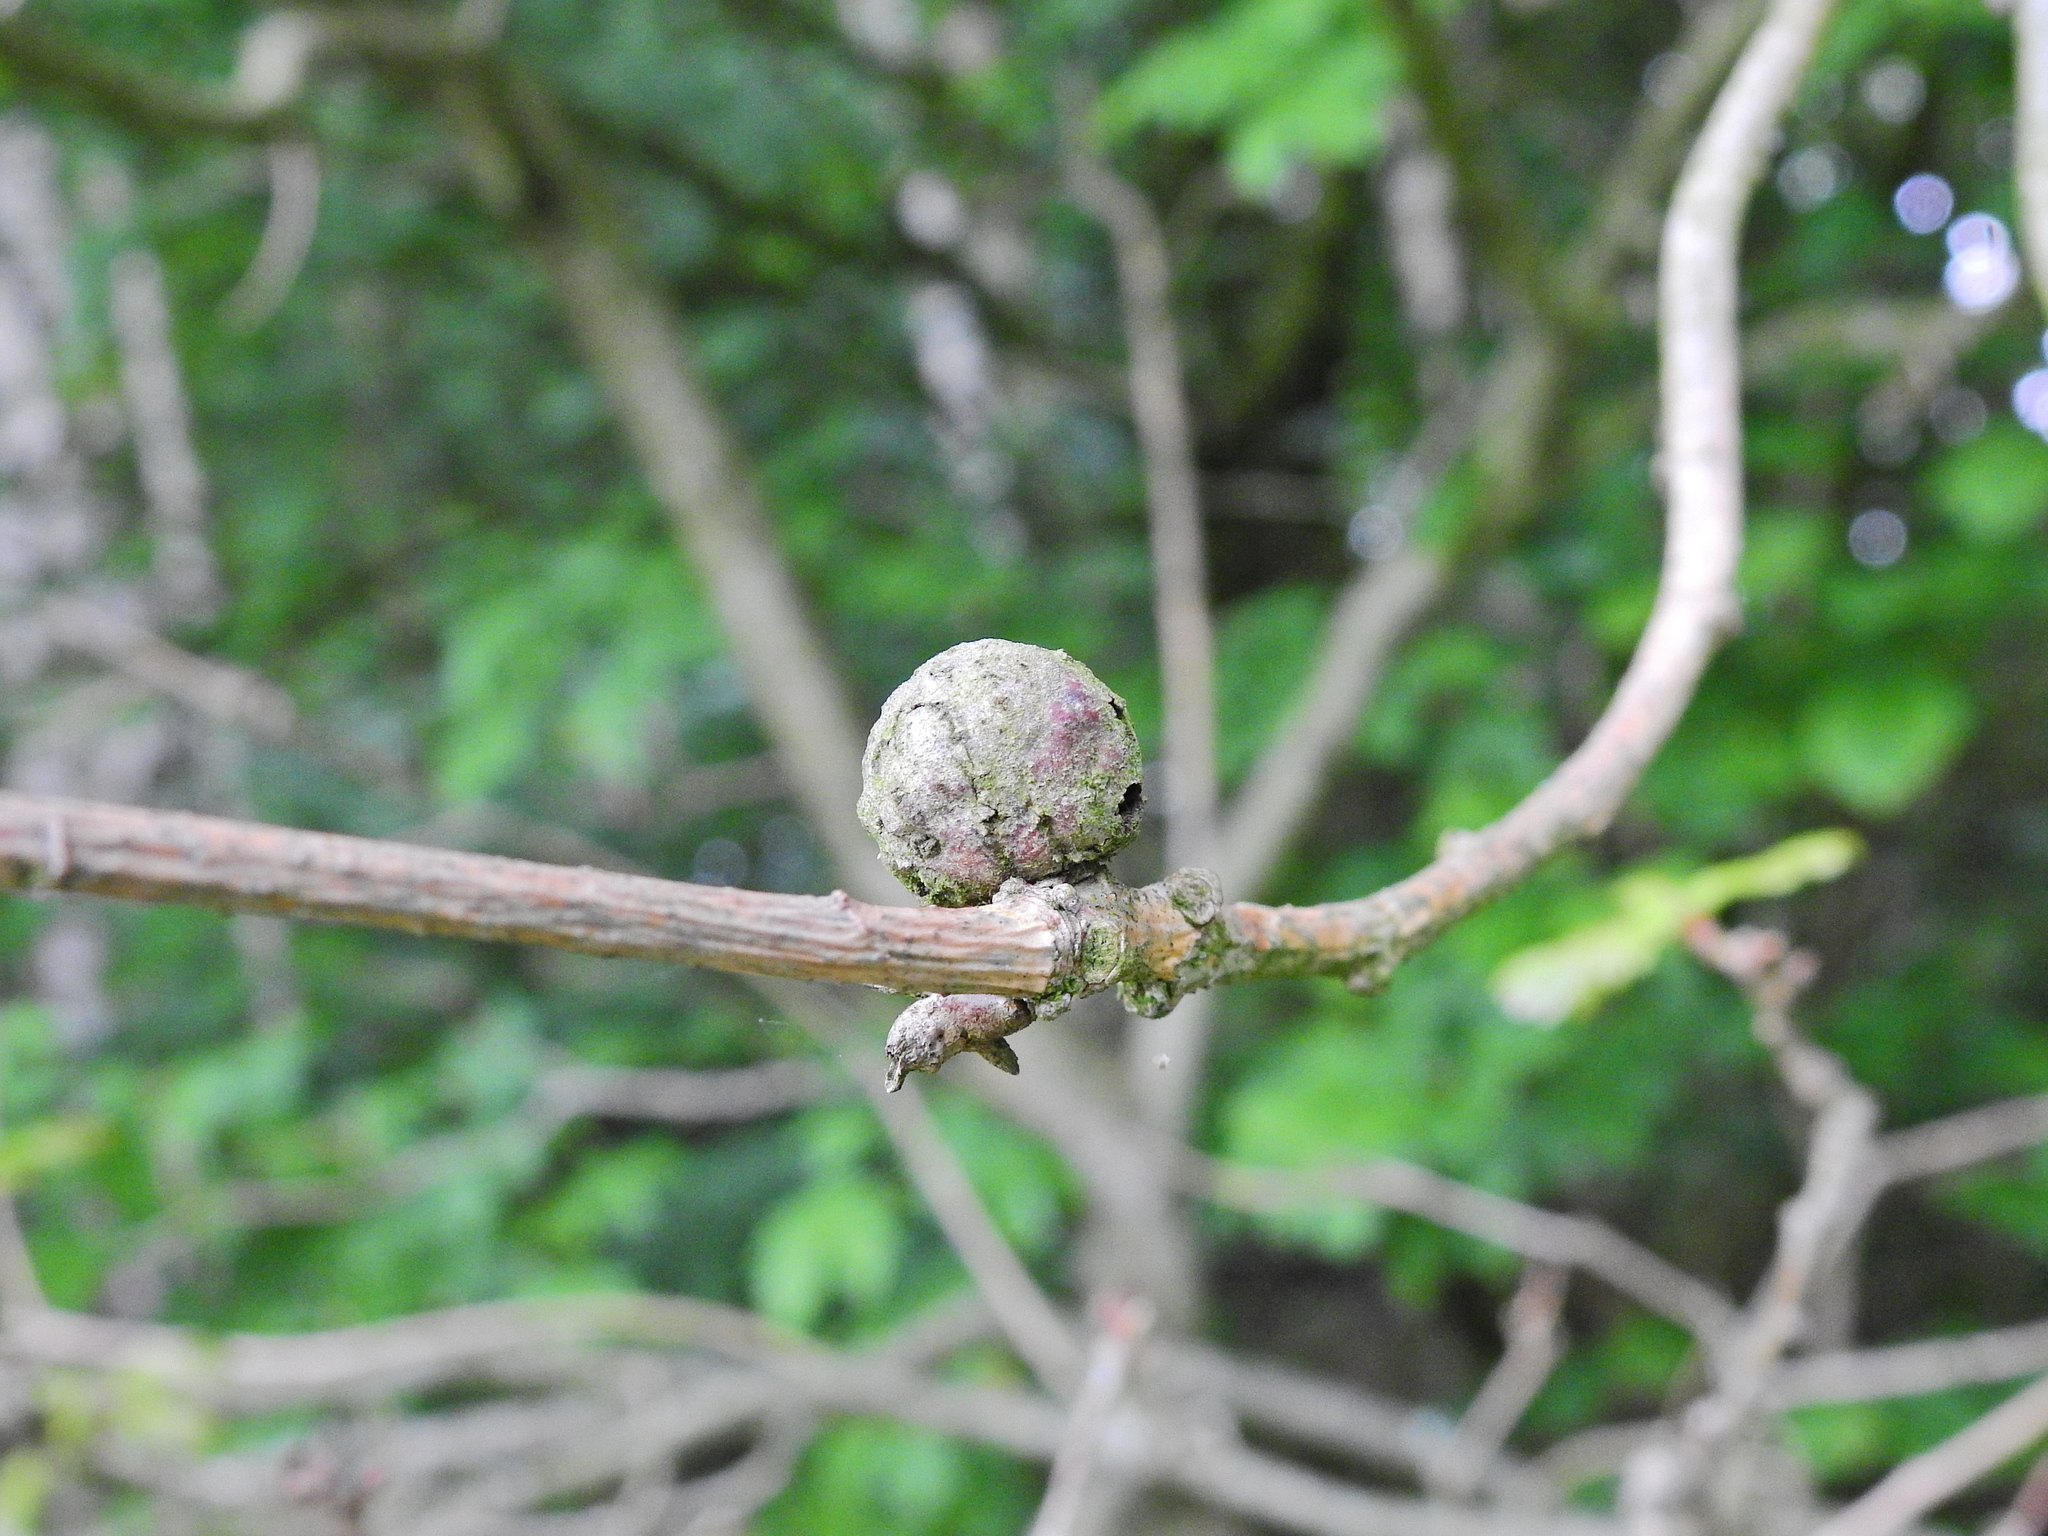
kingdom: Animalia
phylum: Arthropoda
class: Insecta
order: Hymenoptera
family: Cynipidae
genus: Andricus
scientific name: Andricus lignicolus
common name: Cola-nut gall
